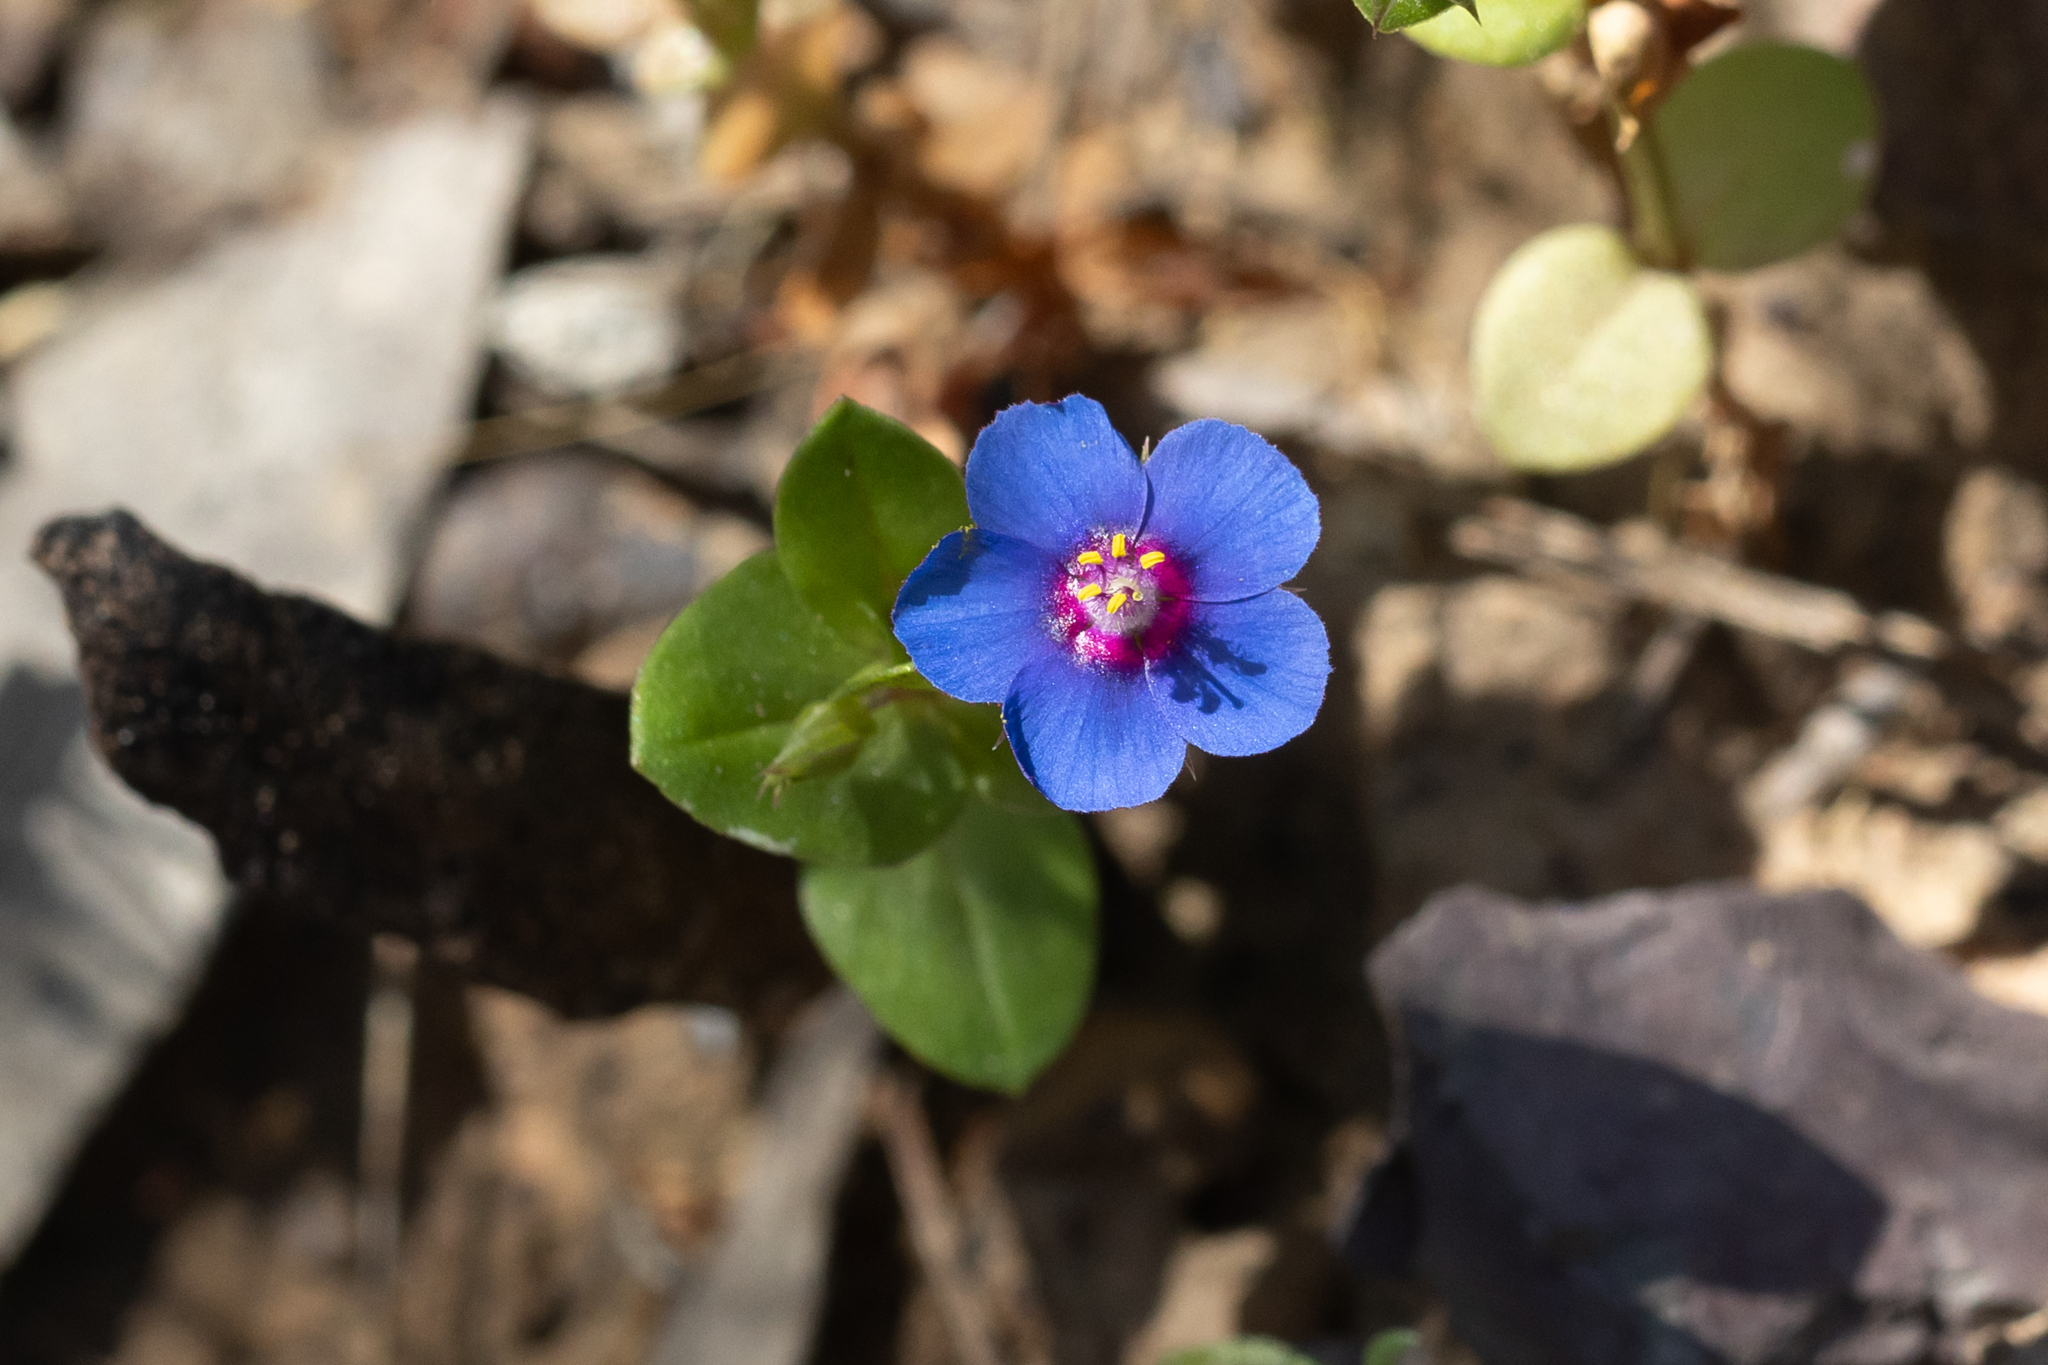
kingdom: Plantae
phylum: Tracheophyta
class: Magnoliopsida
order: Ericales
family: Primulaceae
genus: Lysimachia
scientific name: Lysimachia loeflingii
